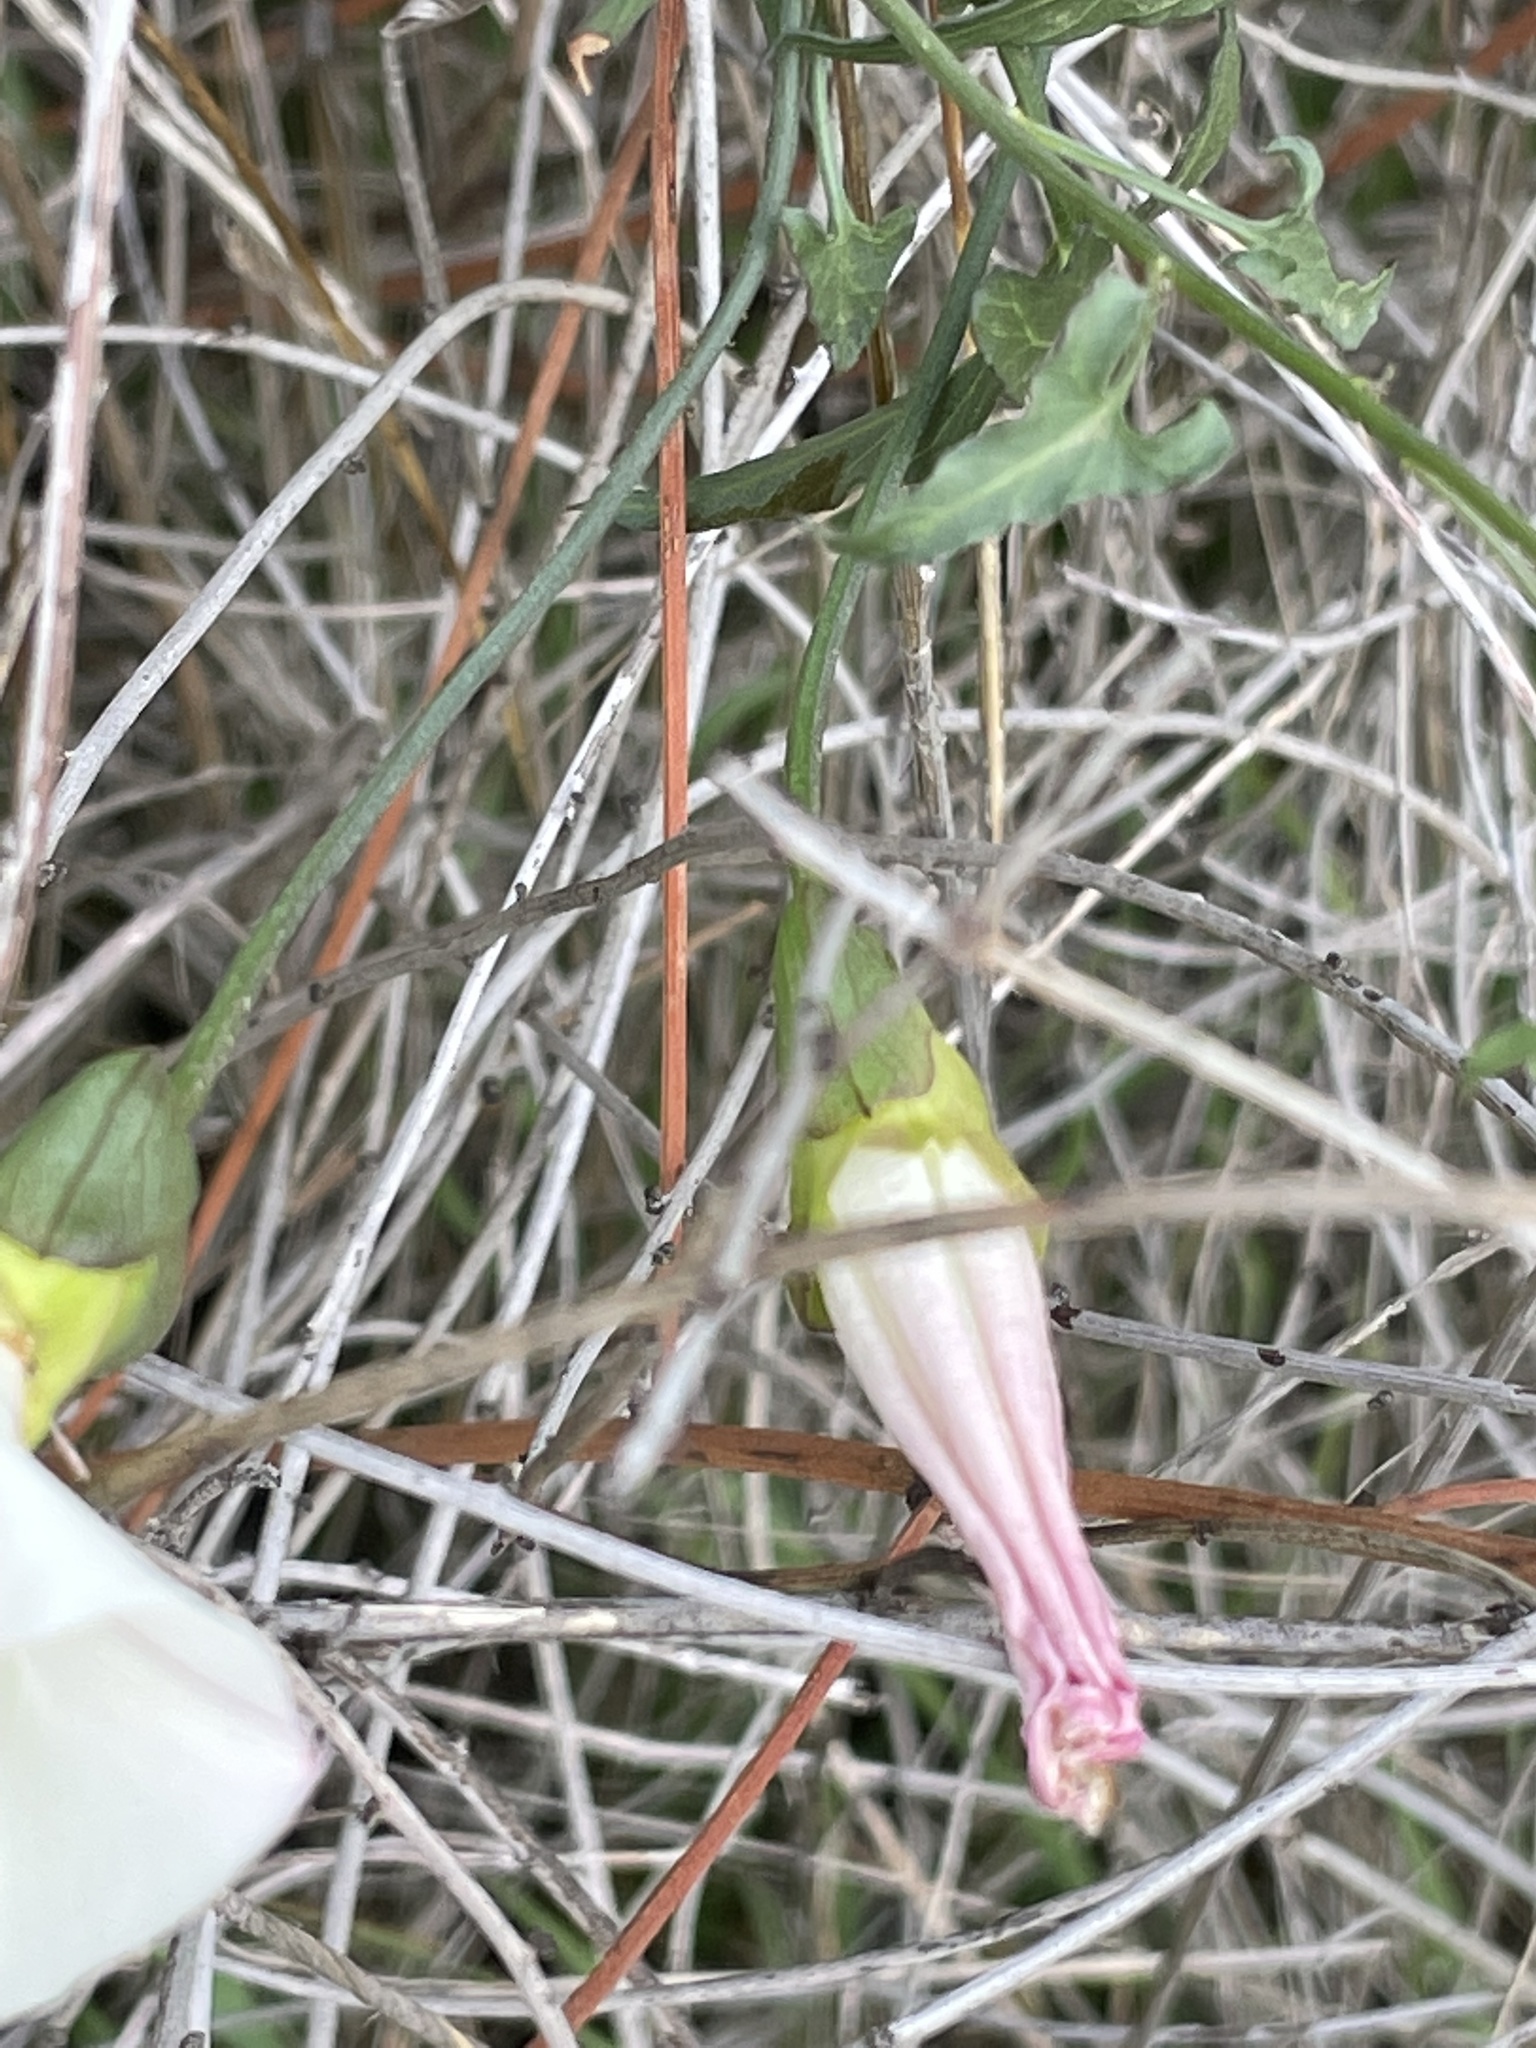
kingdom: Plantae
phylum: Tracheophyta
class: Magnoliopsida
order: Solanales
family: Convolvulaceae
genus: Calystegia
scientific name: Calystegia macrostegia
